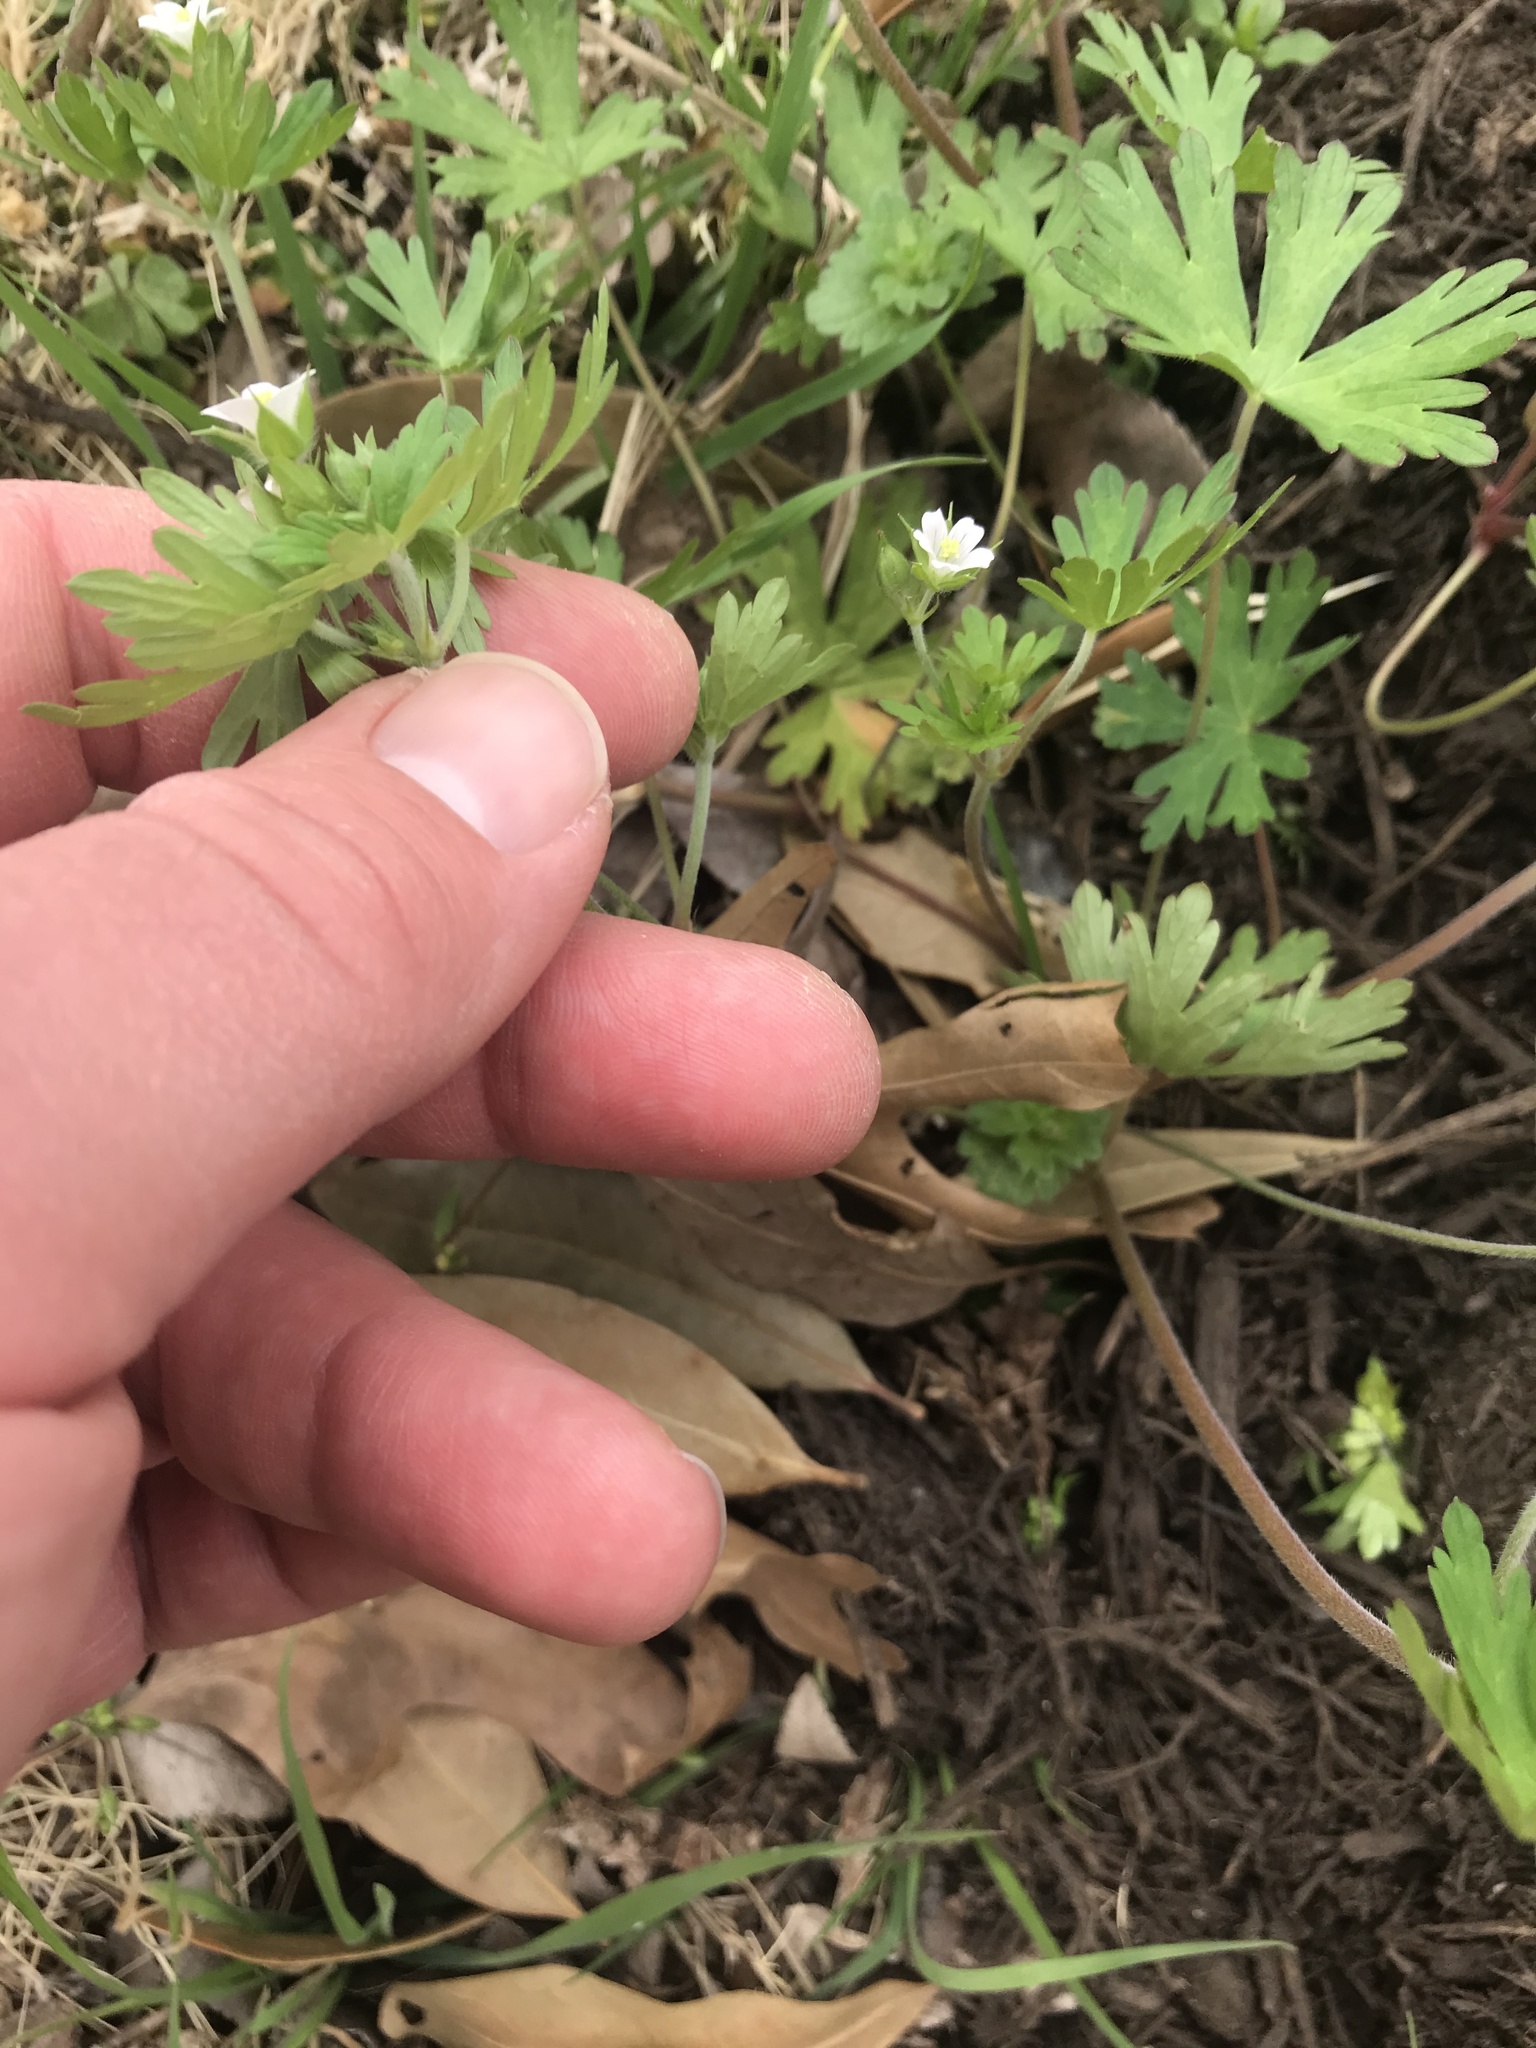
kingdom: Plantae
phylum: Tracheophyta
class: Magnoliopsida
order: Geraniales
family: Geraniaceae
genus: Geranium
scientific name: Geranium carolinianum
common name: Carolina crane's-bill
